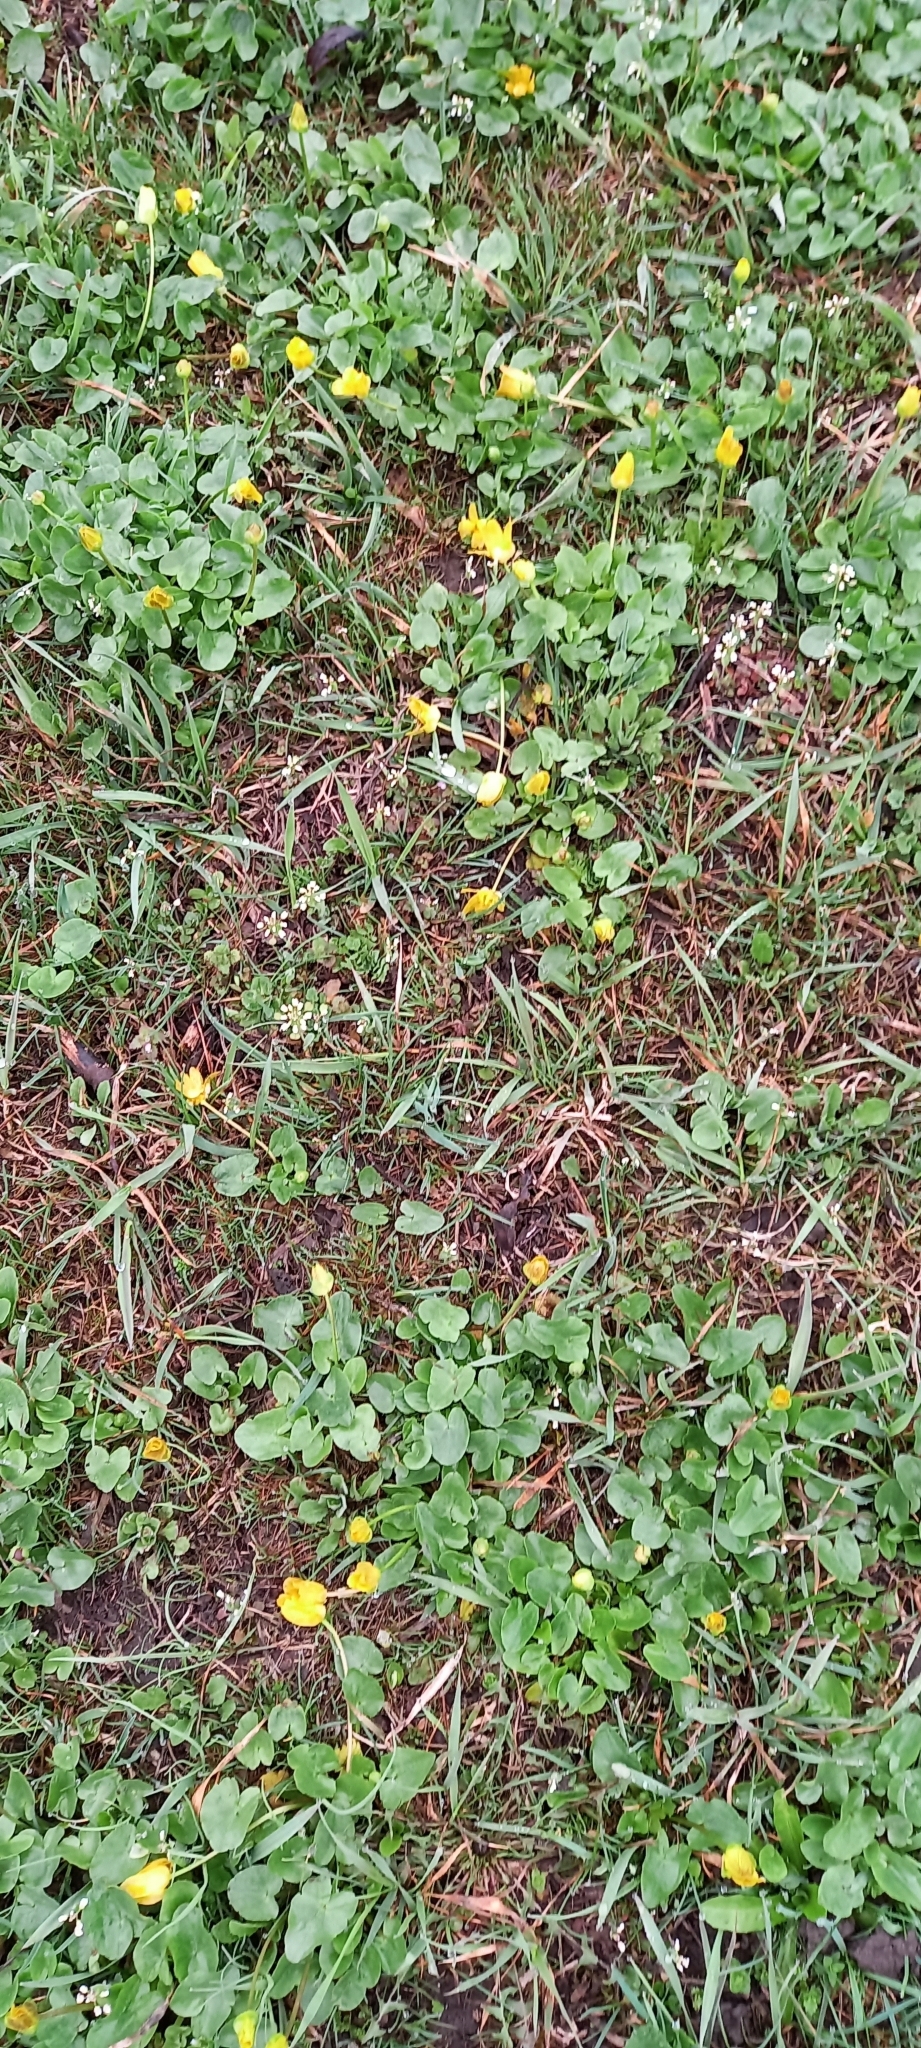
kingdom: Plantae
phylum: Tracheophyta
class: Magnoliopsida
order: Brassicales
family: Brassicaceae
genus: Noccaea
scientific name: Noccaea perfoliata
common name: Perfoliate pennycress
